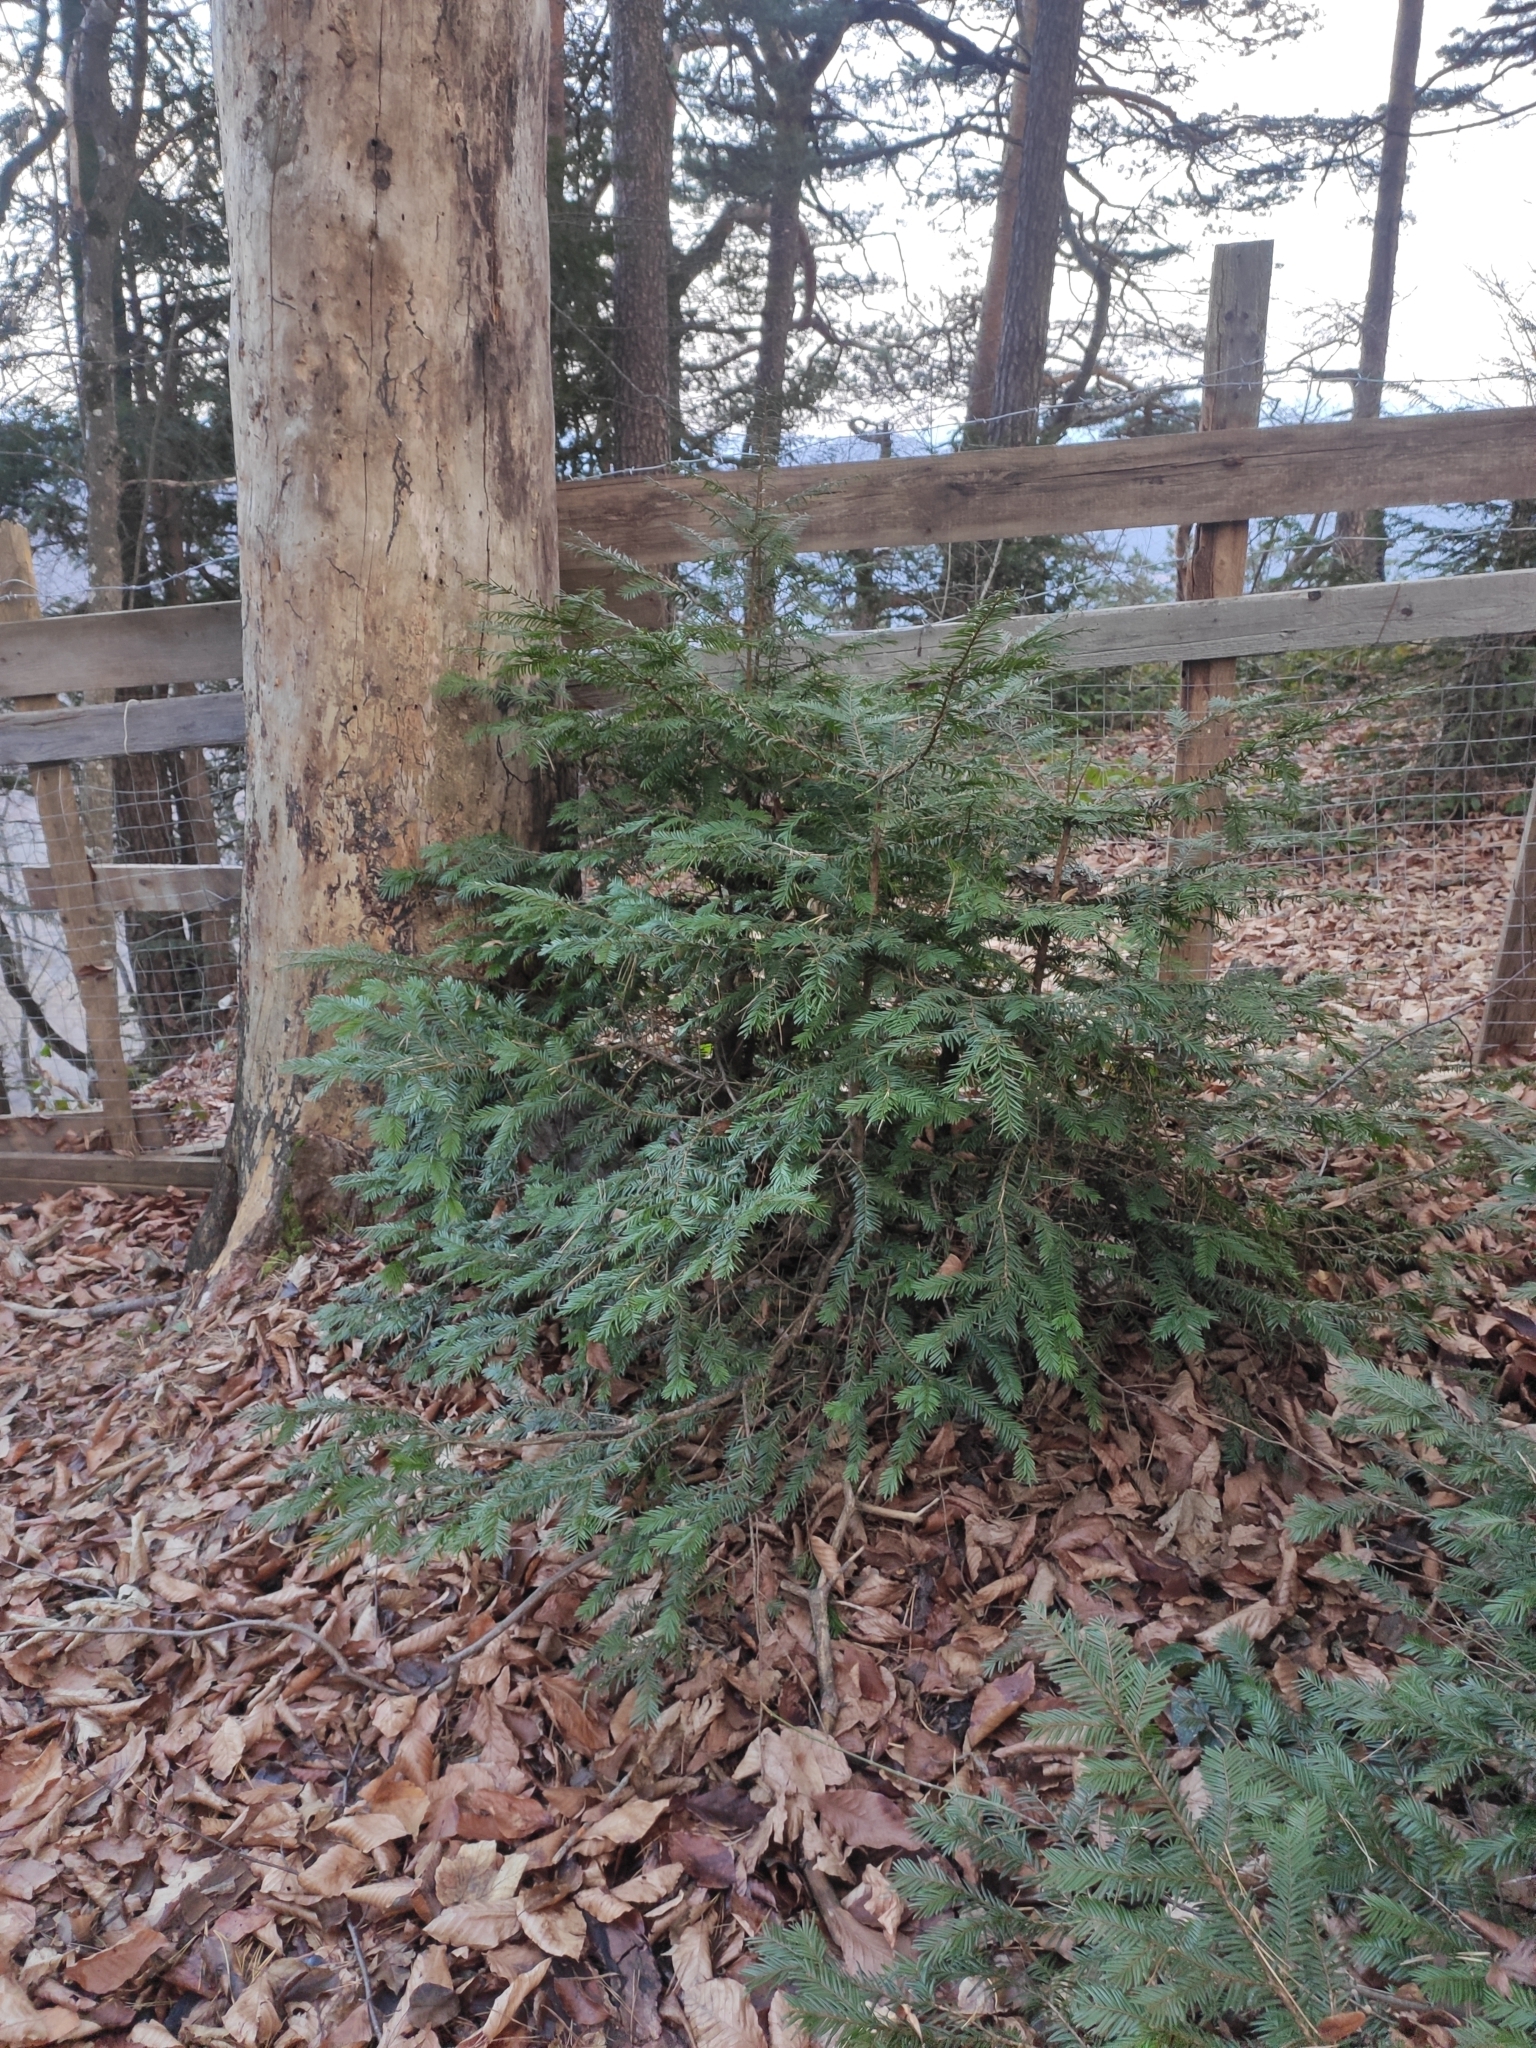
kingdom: Plantae
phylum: Tracheophyta
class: Pinopsida
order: Pinales
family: Taxaceae
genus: Taxus
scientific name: Taxus baccata
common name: Yew
